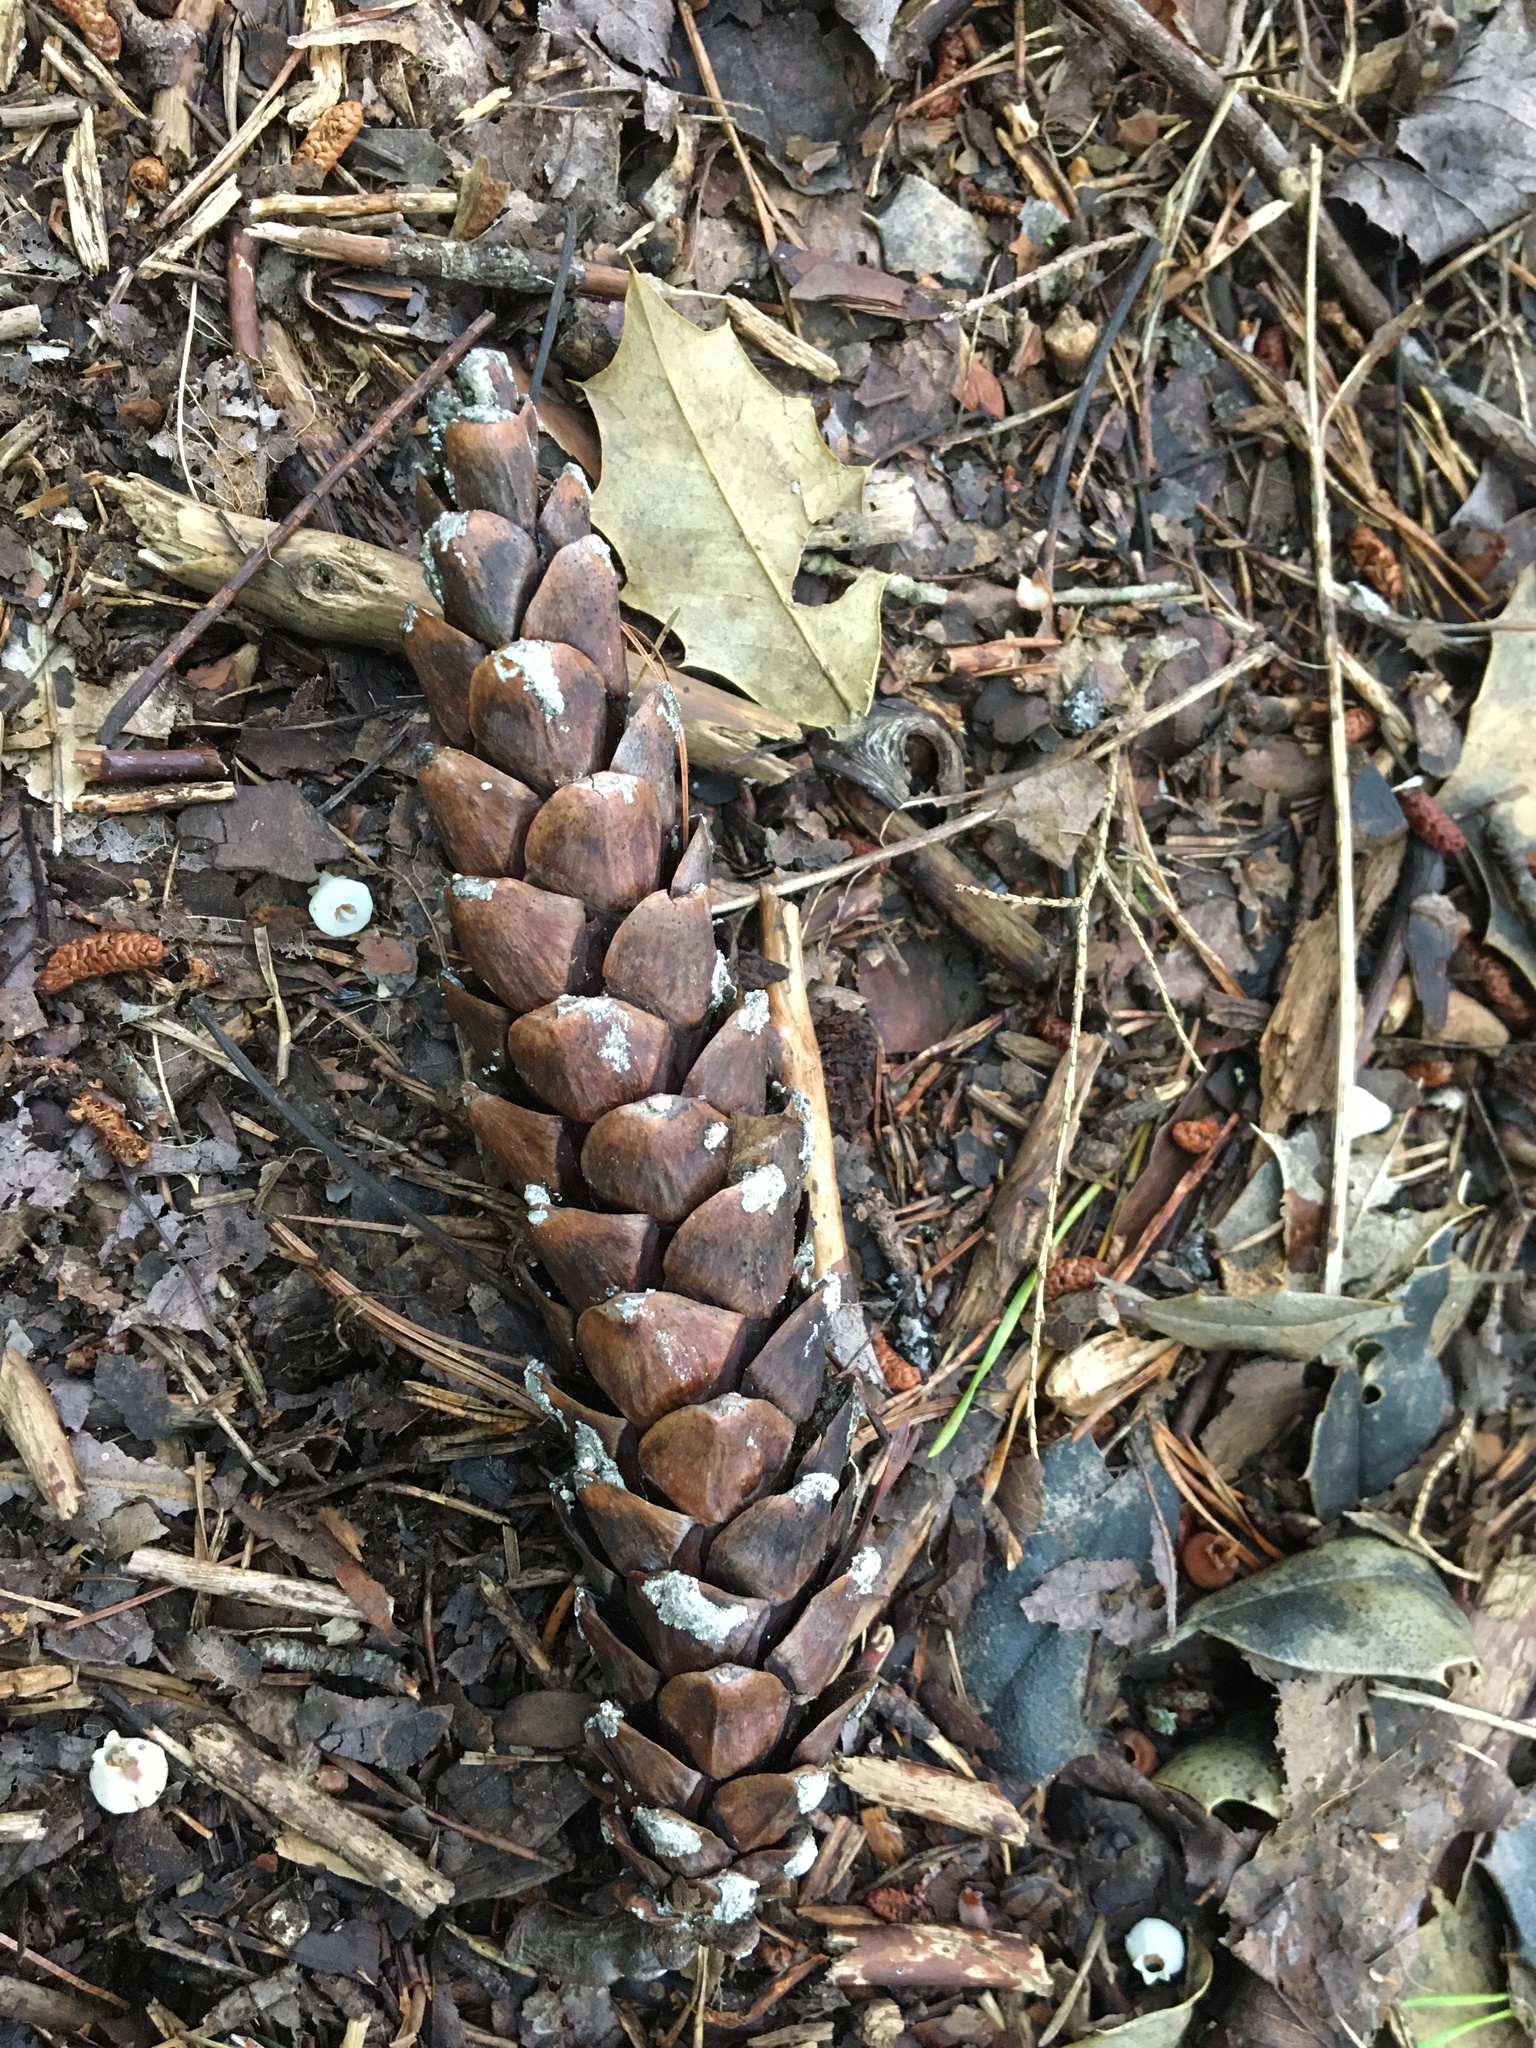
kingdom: Plantae
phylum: Tracheophyta
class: Pinopsida
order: Pinales
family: Pinaceae
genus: Pinus
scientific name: Pinus strobus
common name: Weymouth pine
